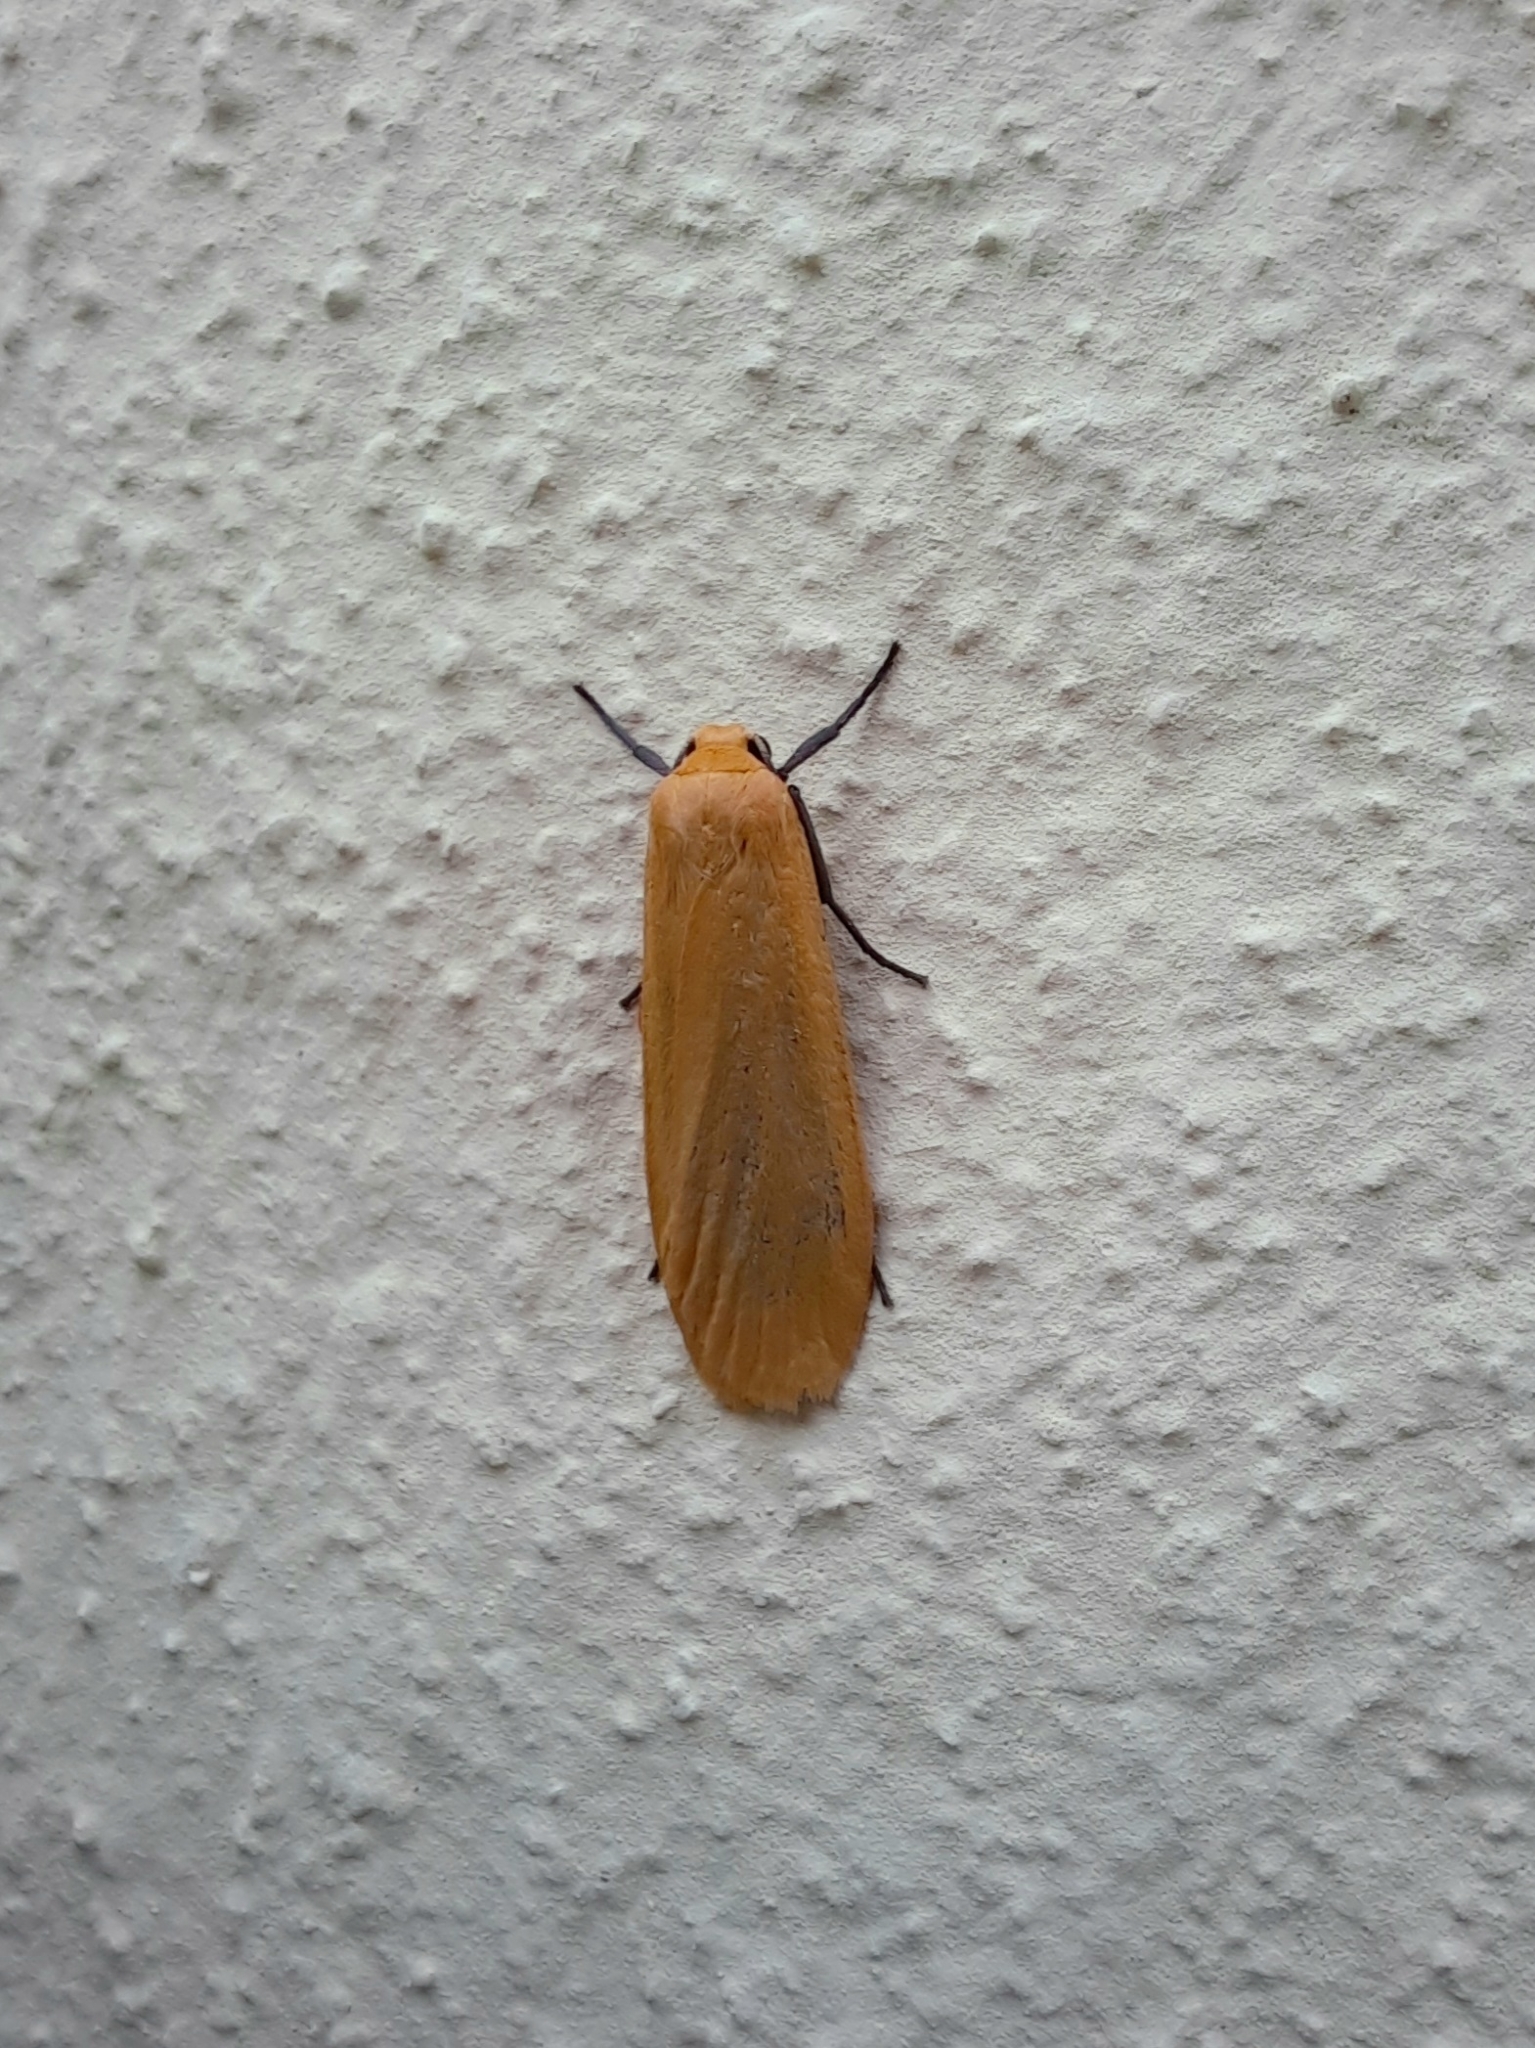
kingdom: Animalia
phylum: Arthropoda
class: Insecta
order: Lepidoptera
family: Erebidae
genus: Wittia
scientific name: Wittia sororcula
